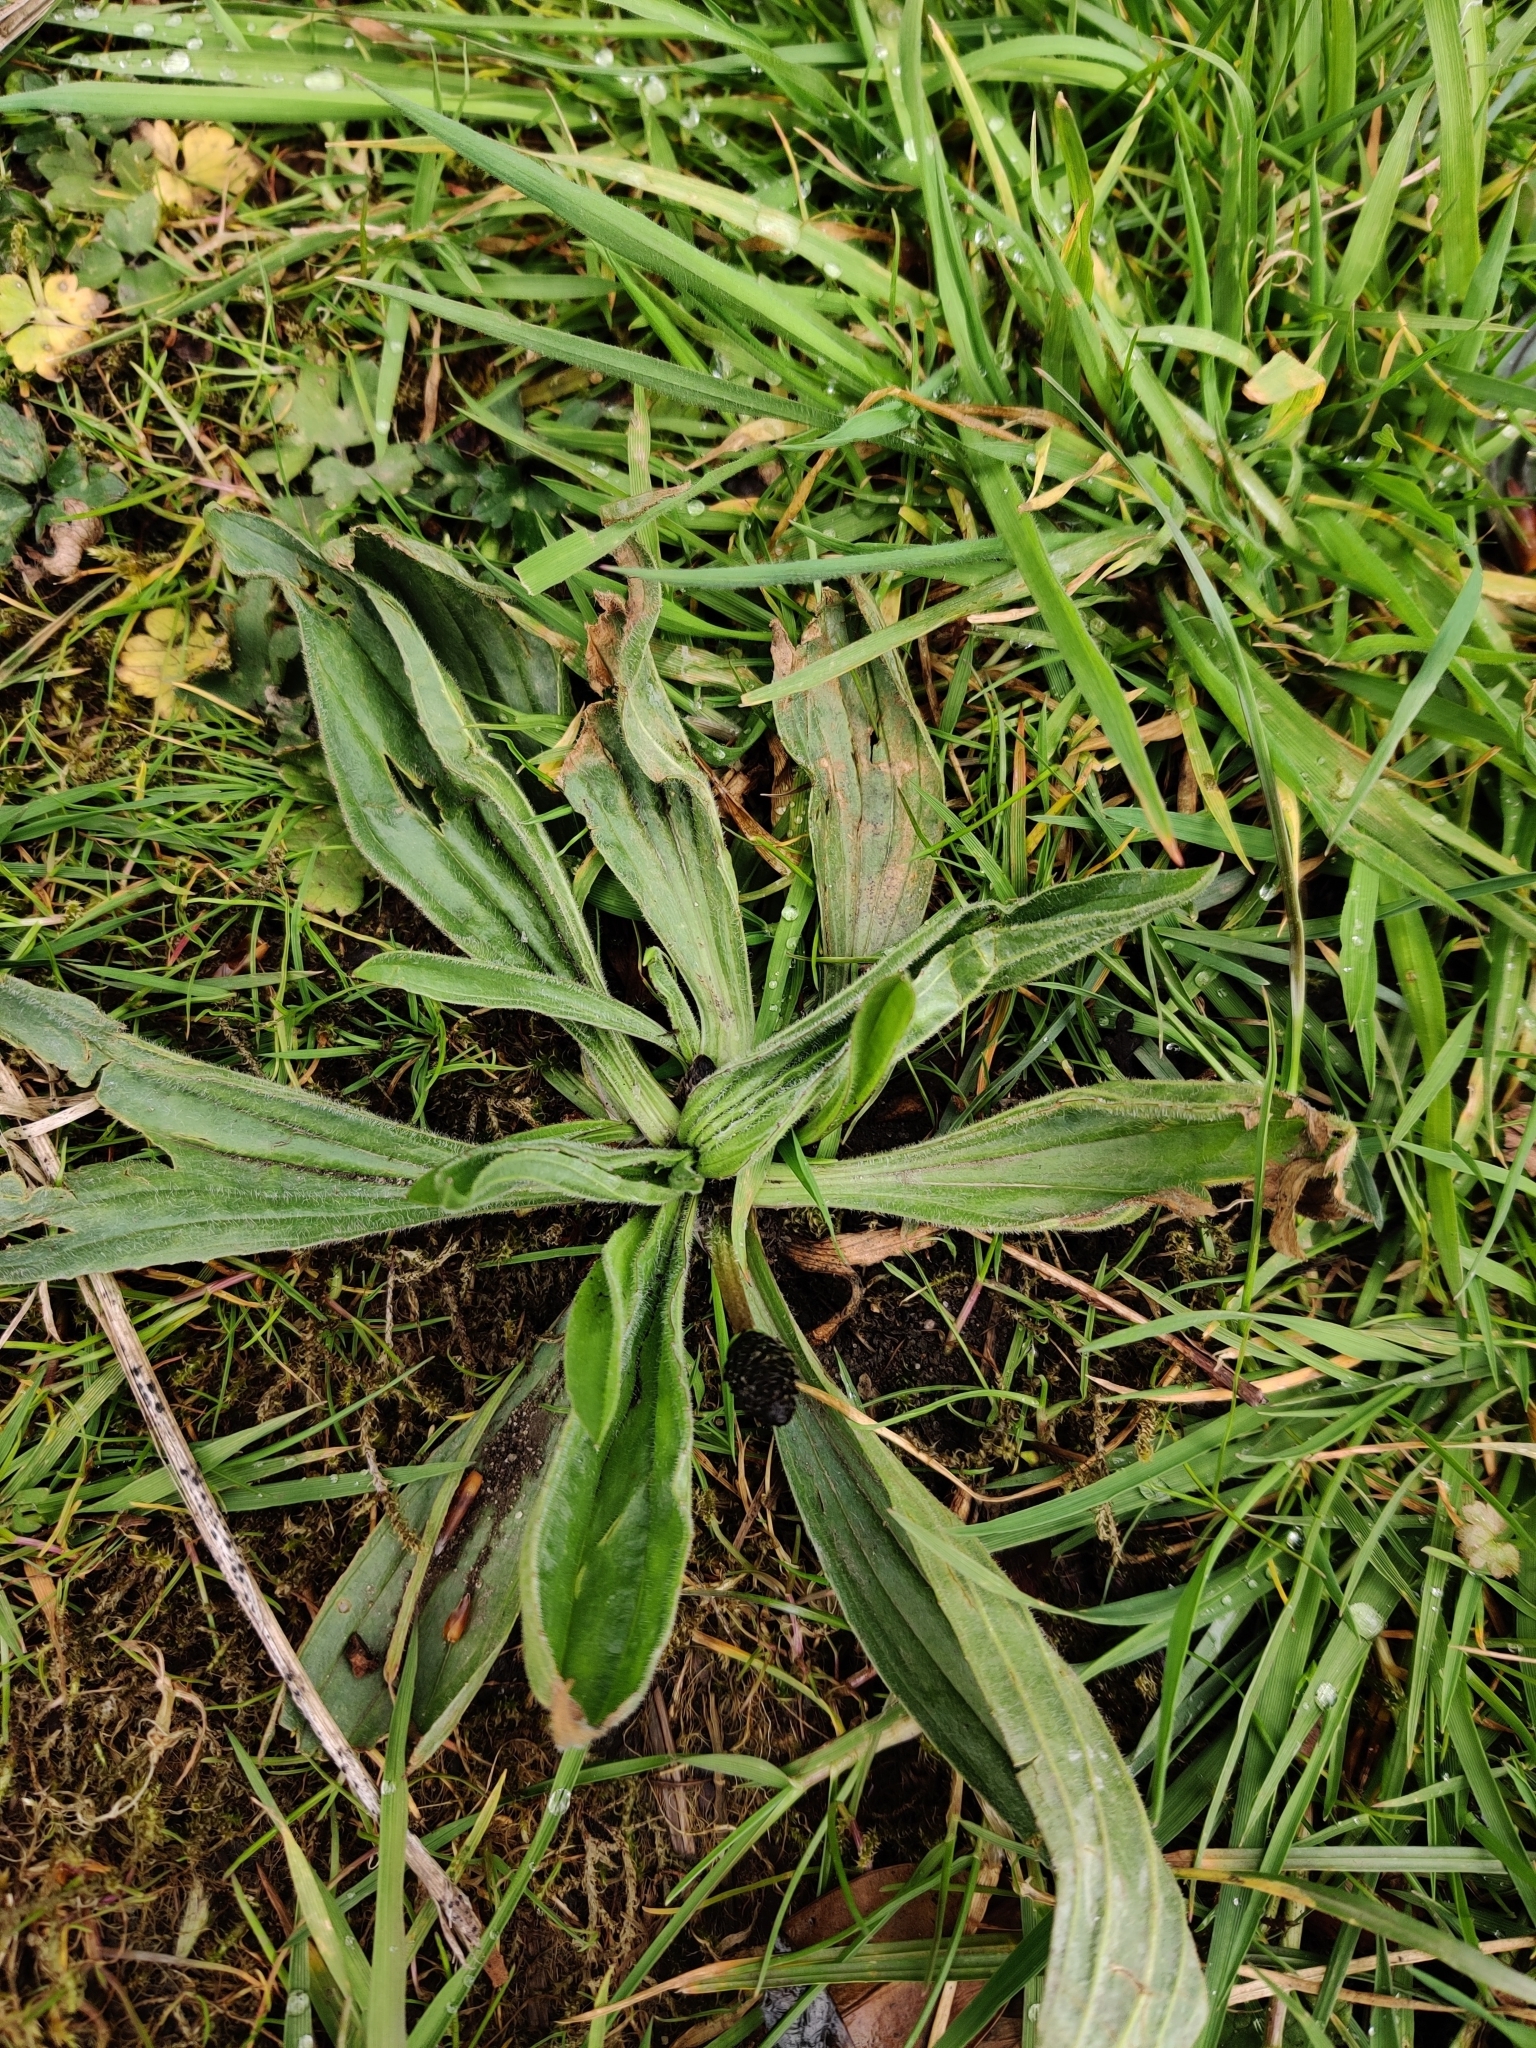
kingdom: Plantae
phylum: Tracheophyta
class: Magnoliopsida
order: Lamiales
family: Plantaginaceae
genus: Plantago
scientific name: Plantago lanceolata
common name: Ribwort plantain
